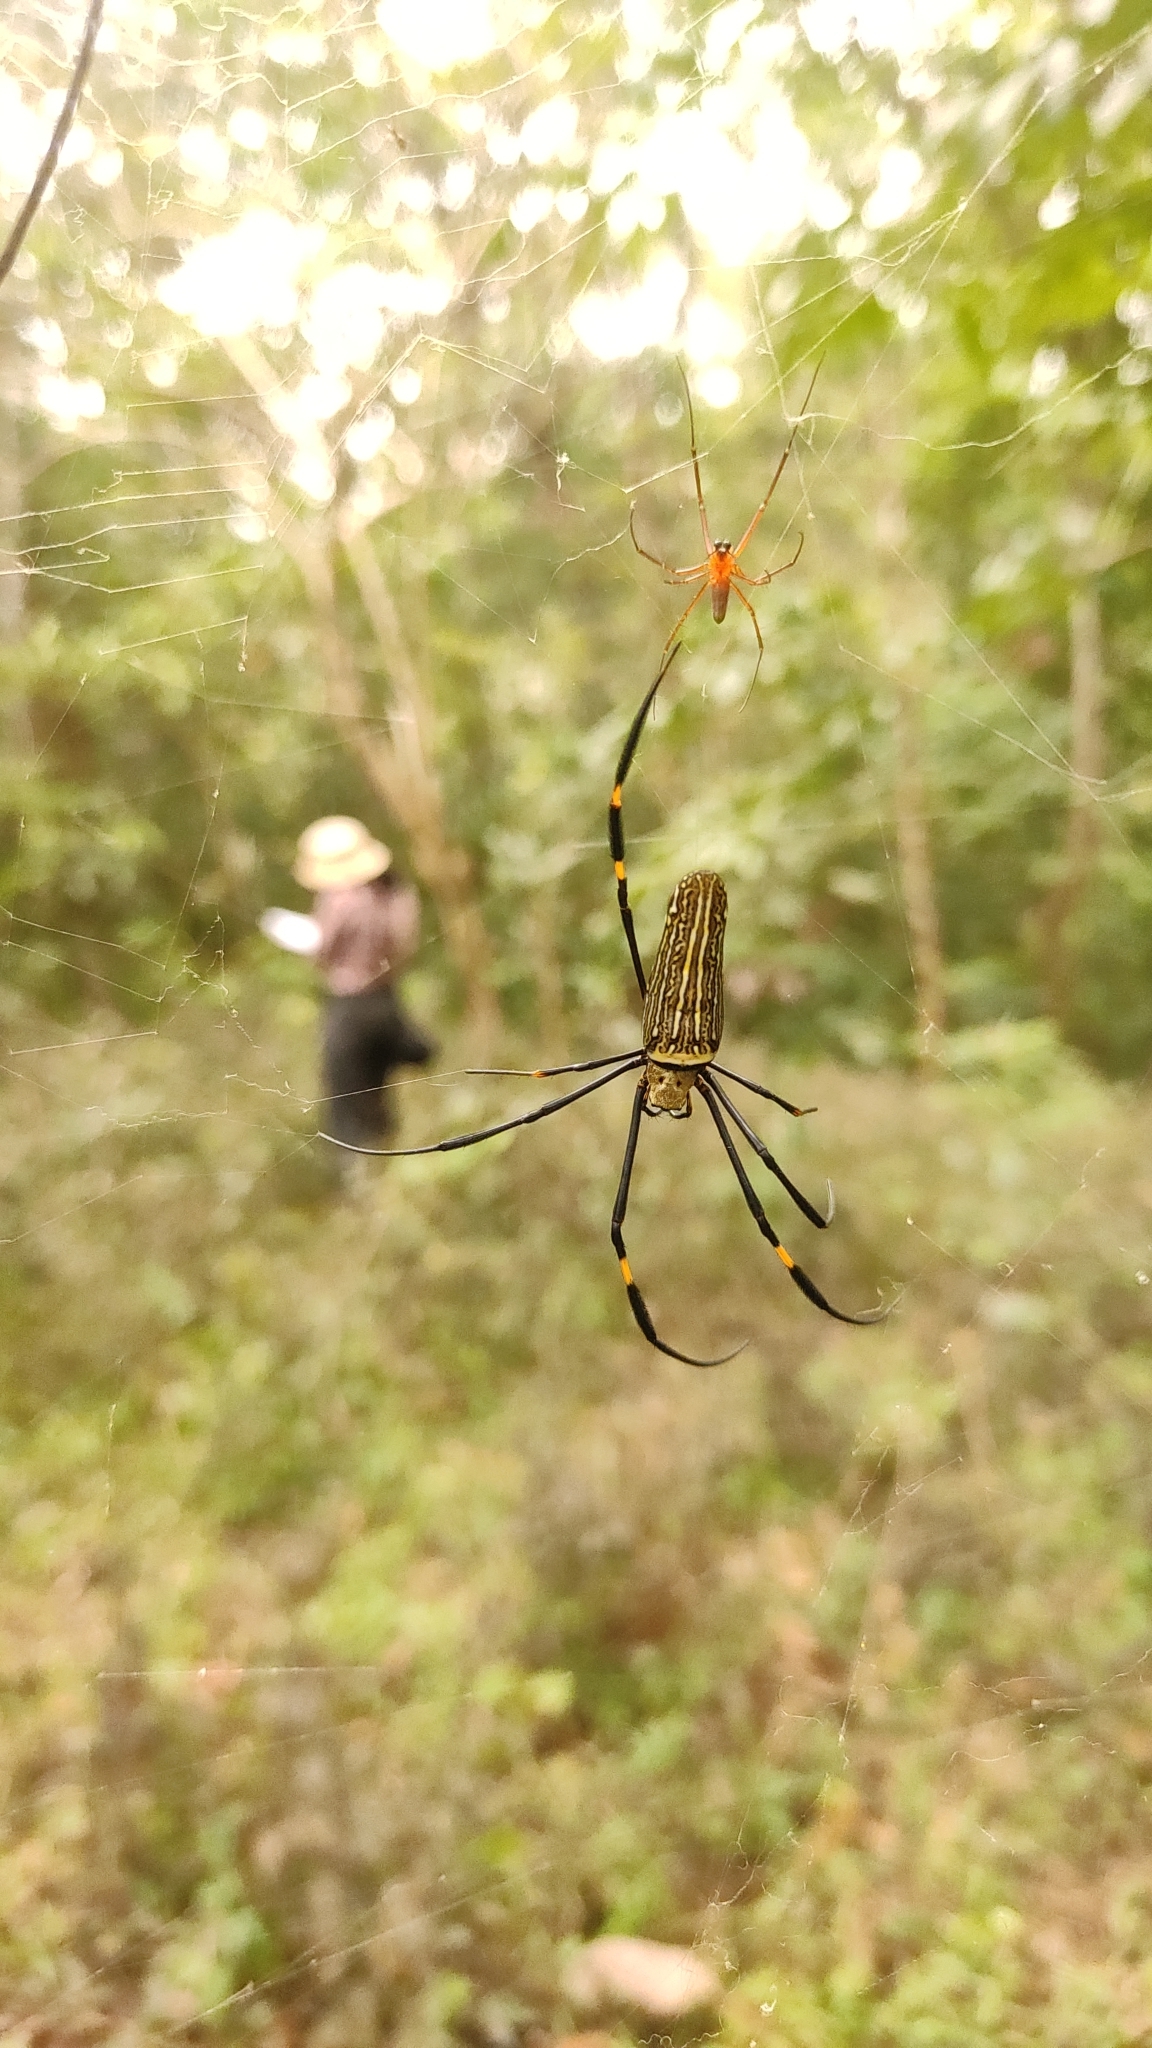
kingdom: Animalia
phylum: Arthropoda
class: Arachnida
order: Araneae
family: Araneidae
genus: Nephila
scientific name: Nephila pilipes
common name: Giant golden orb weaver
